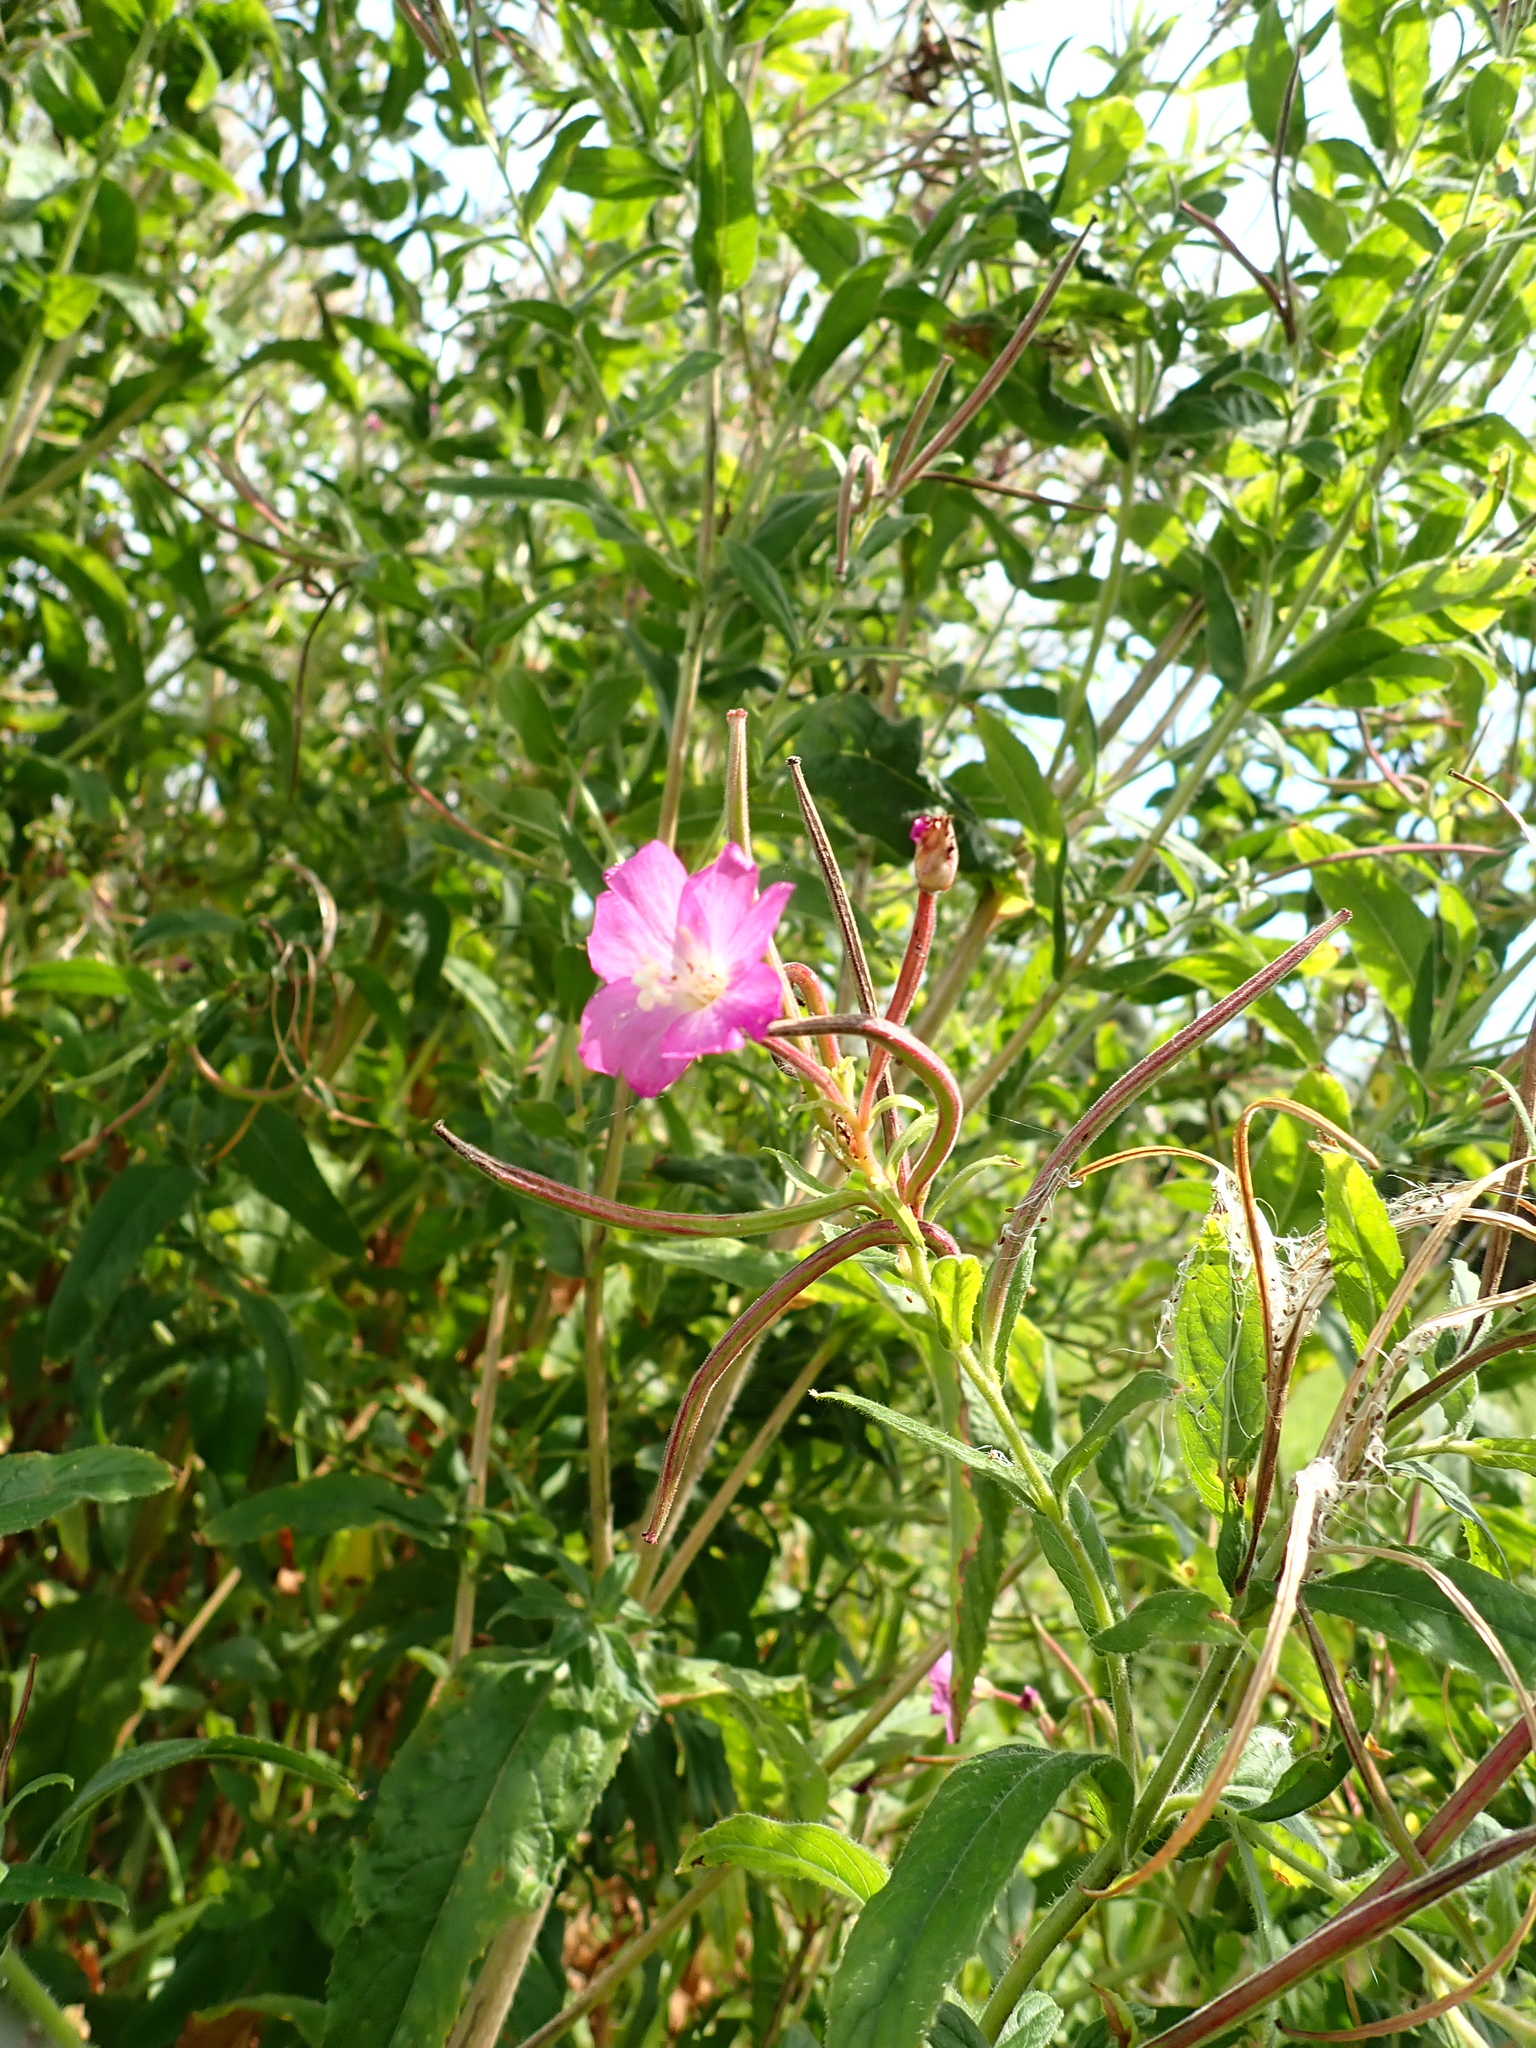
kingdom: Plantae
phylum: Tracheophyta
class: Magnoliopsida
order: Myrtales
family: Onagraceae
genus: Epilobium
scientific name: Epilobium hirsutum
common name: Great willowherb
